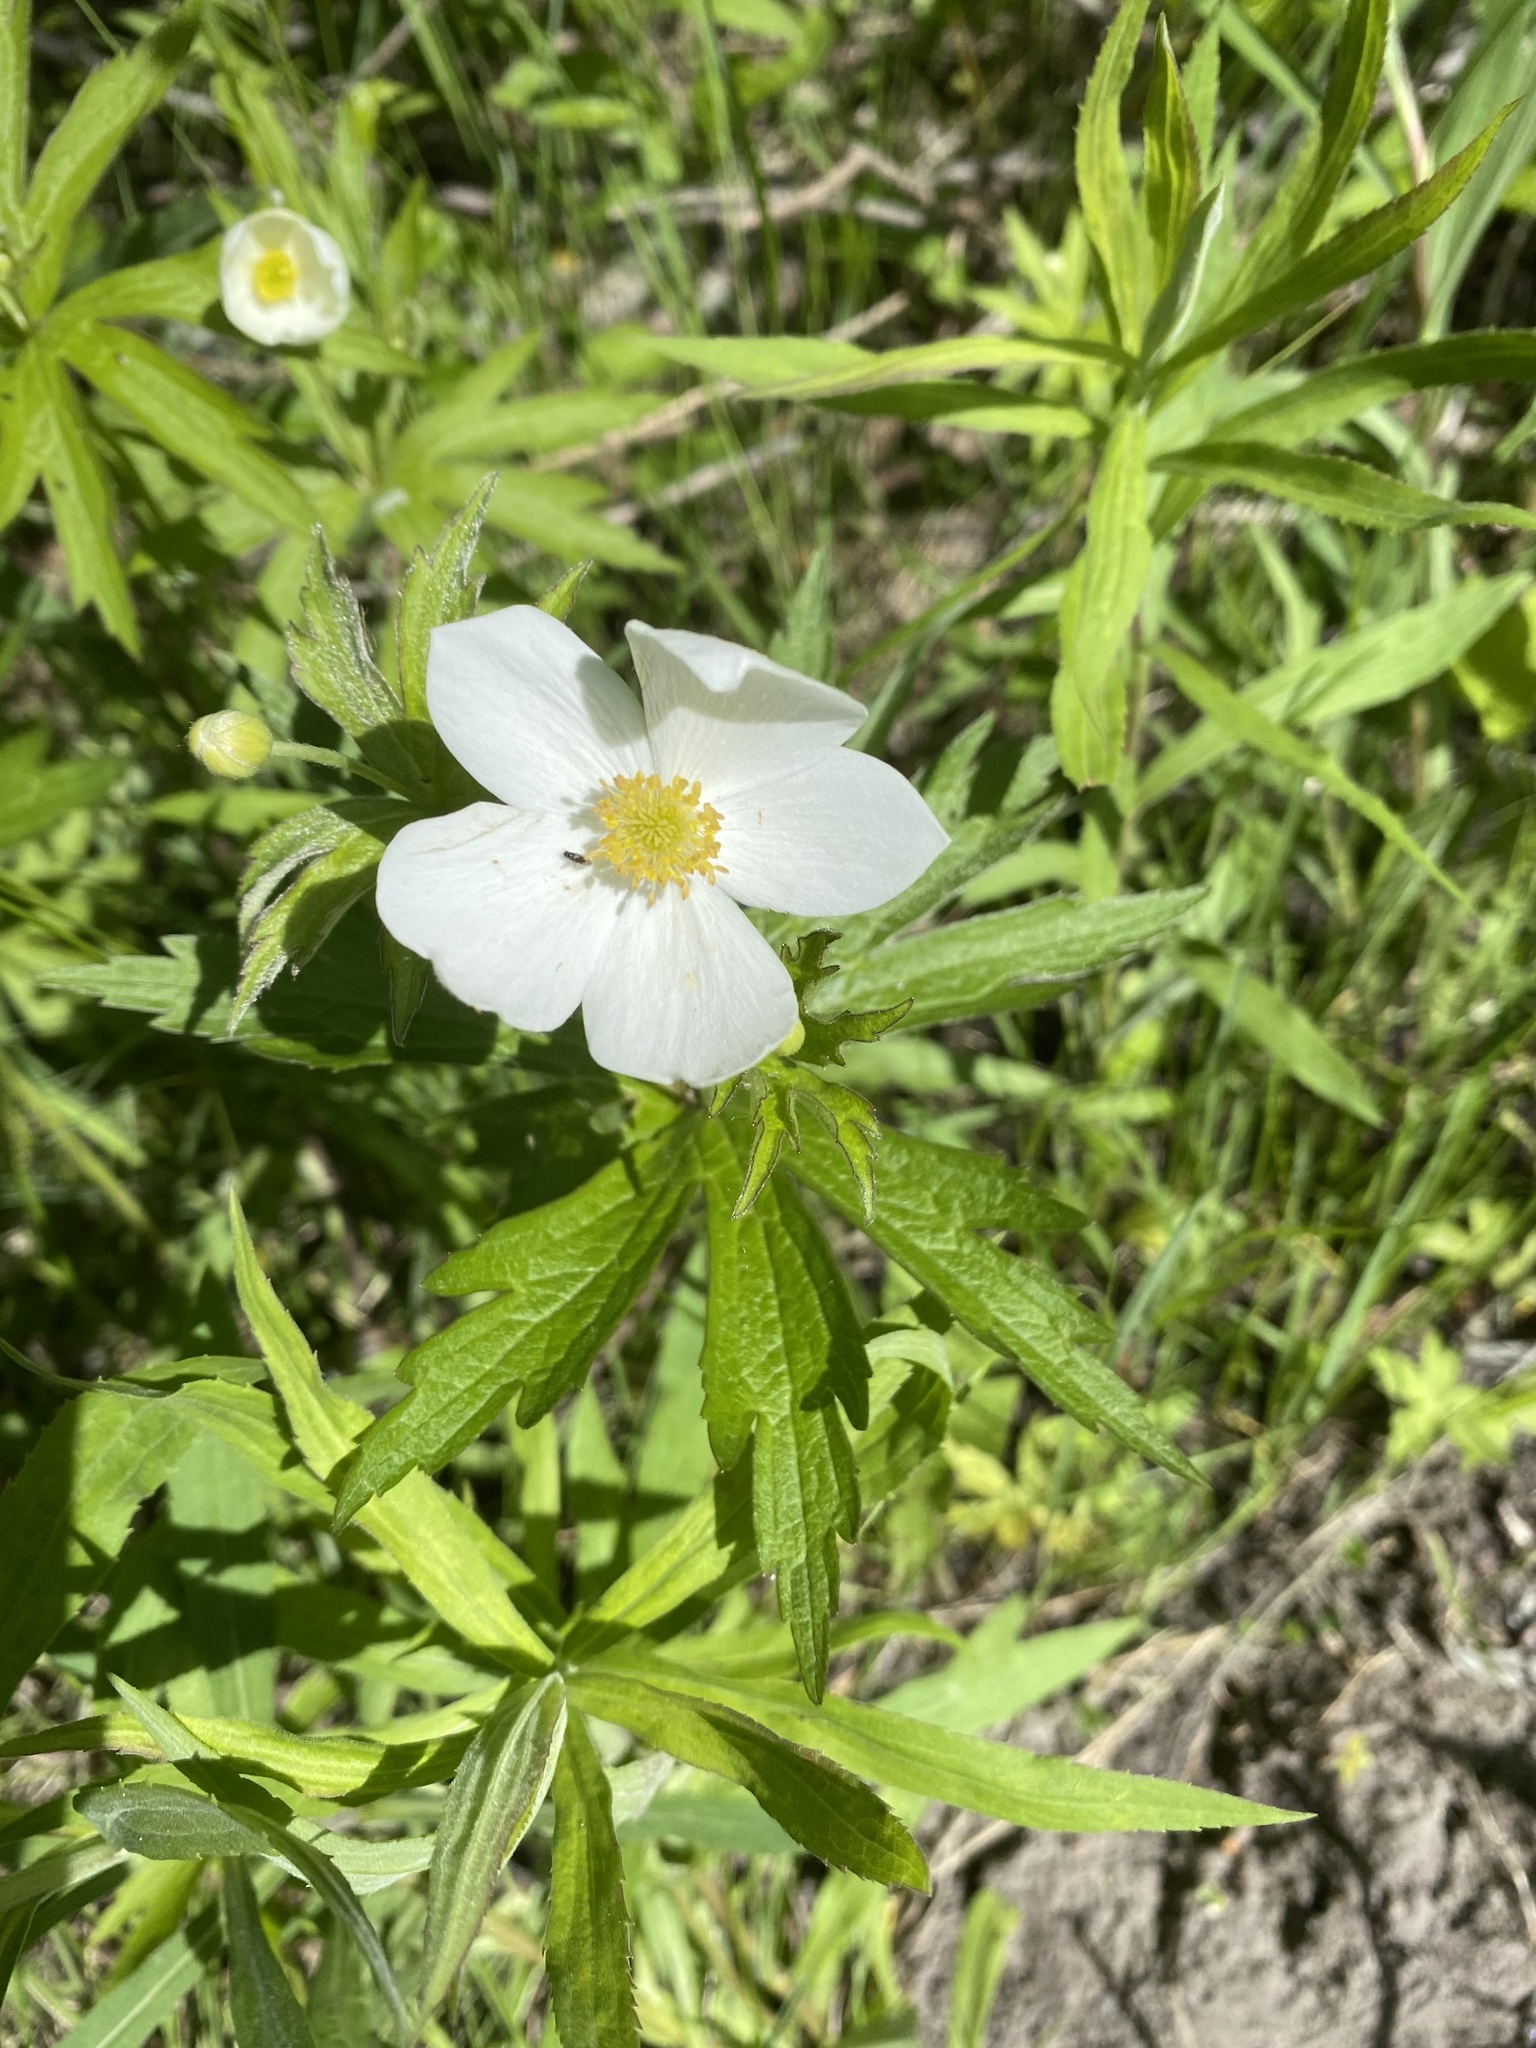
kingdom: Plantae
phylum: Tracheophyta
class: Magnoliopsida
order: Ranunculales
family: Ranunculaceae
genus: Anemonastrum
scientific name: Anemonastrum canadense
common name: Canada anemone
